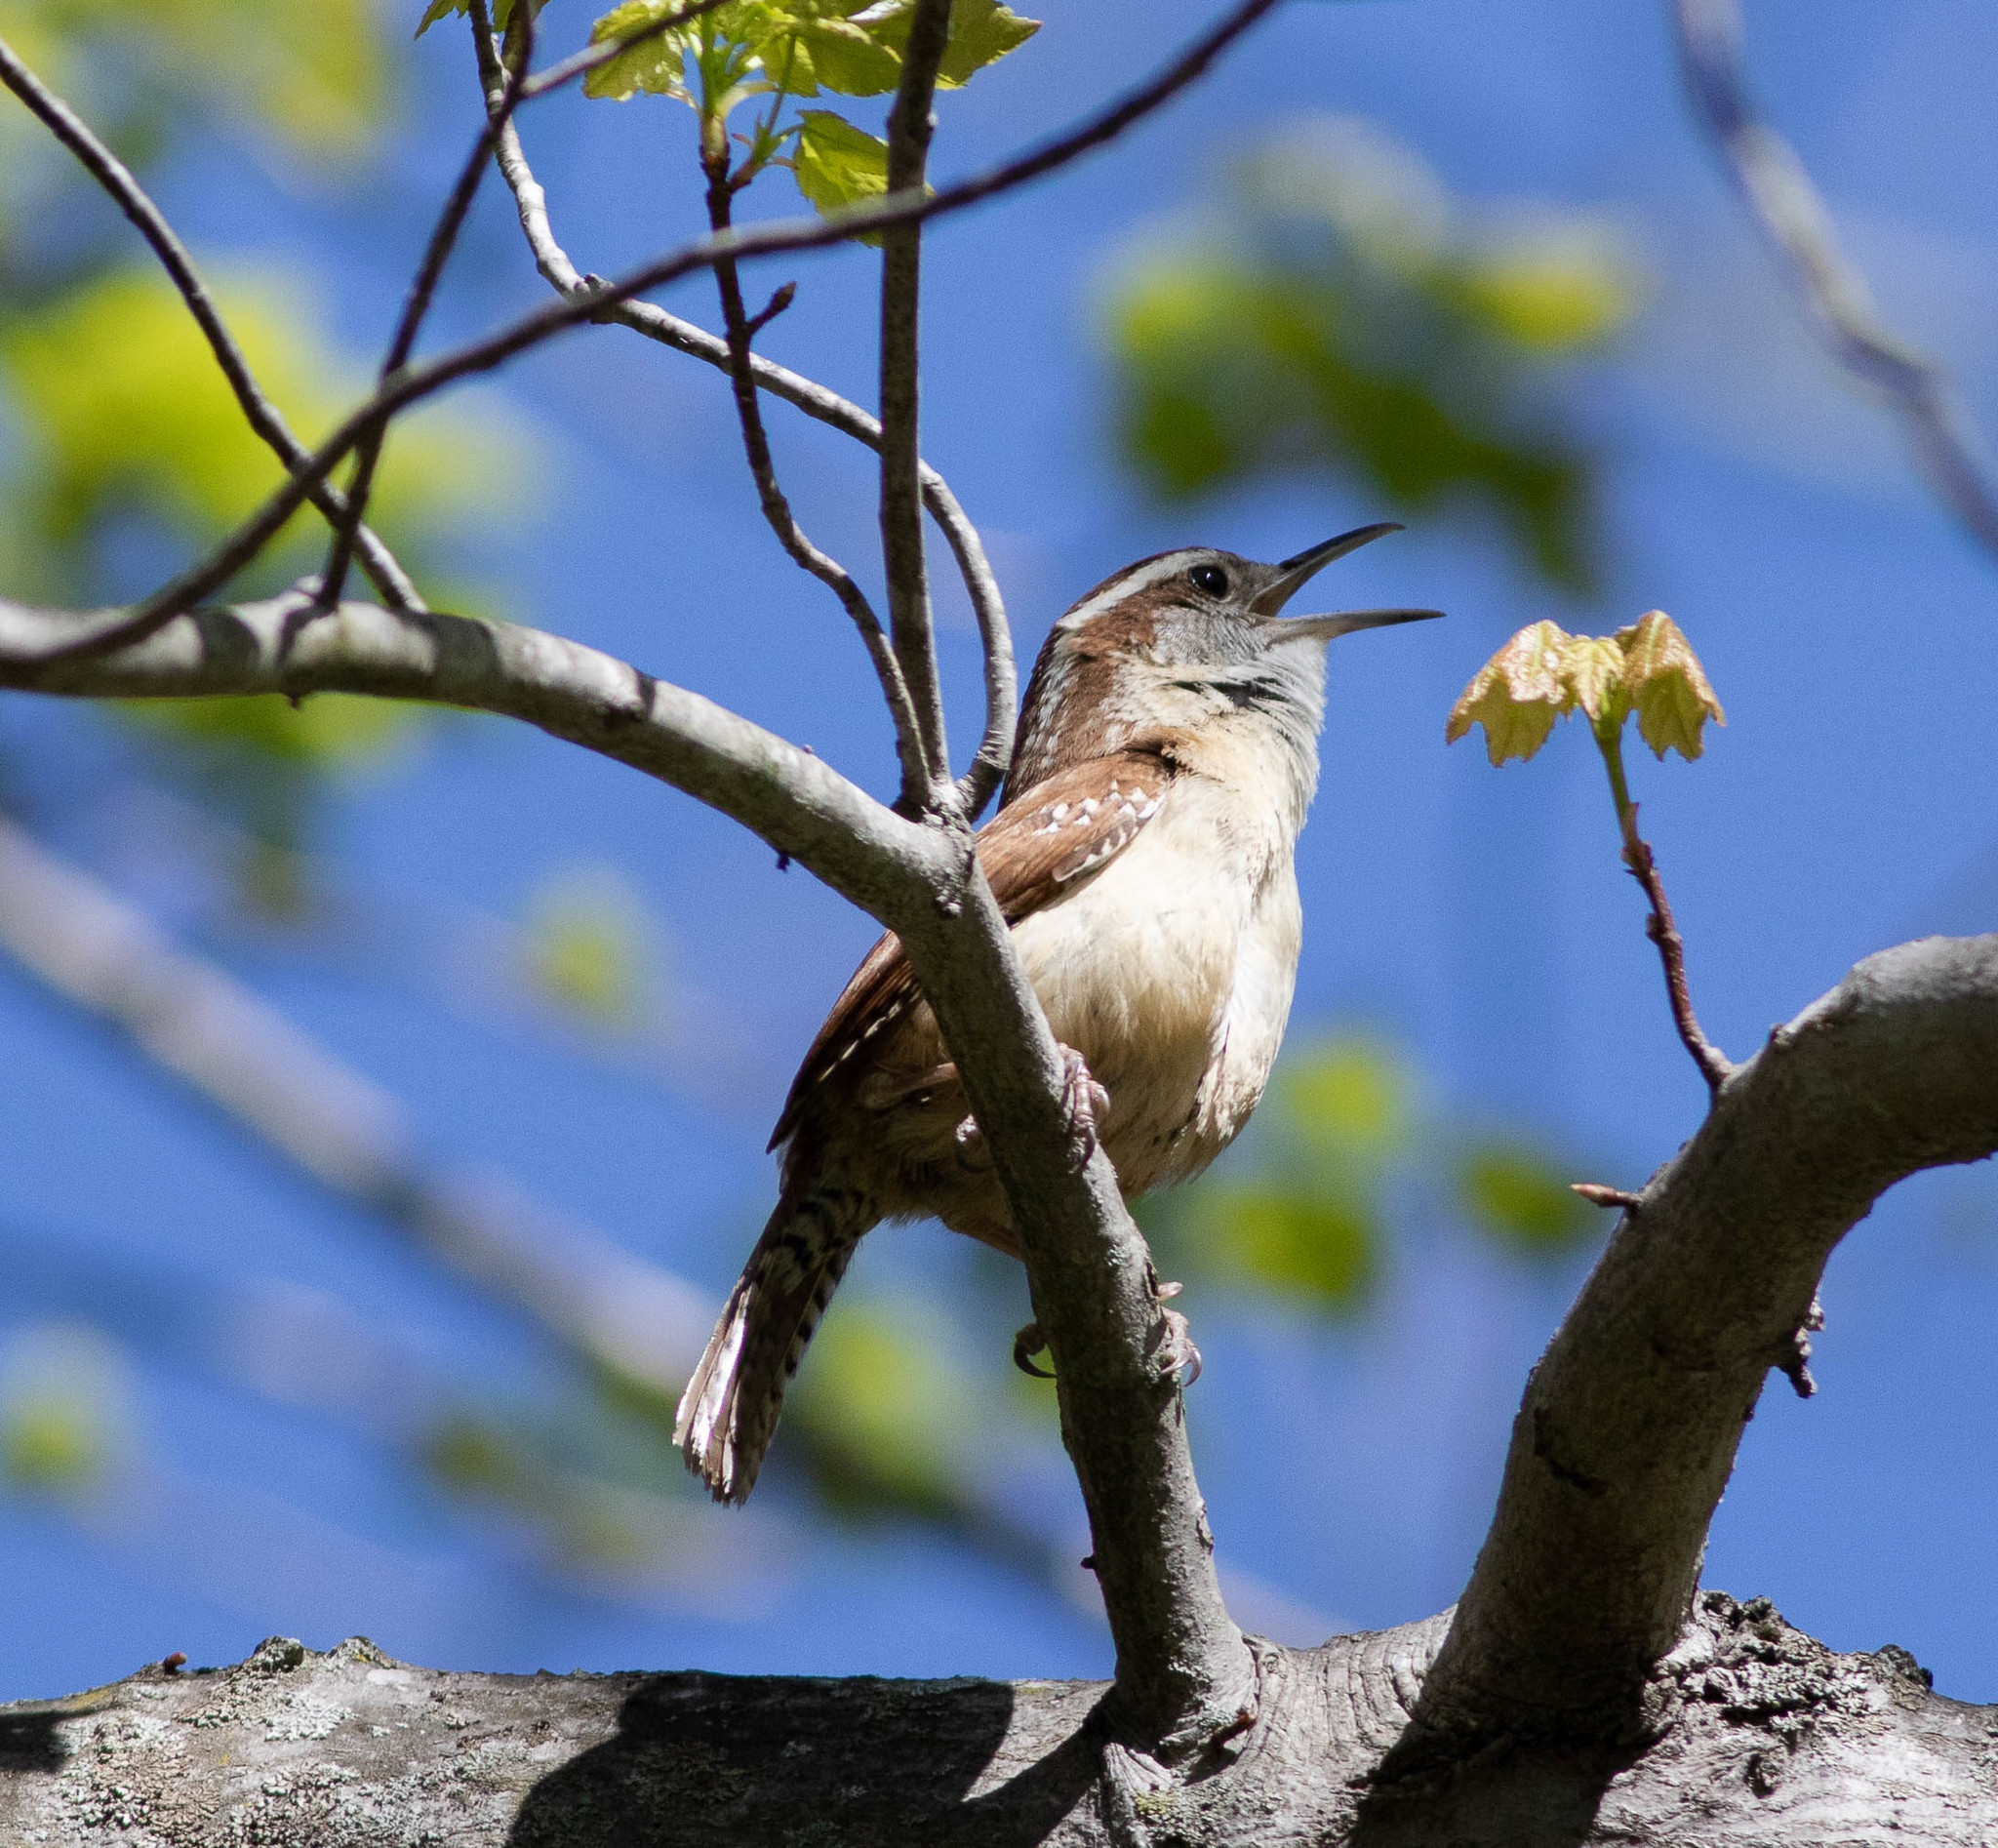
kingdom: Animalia
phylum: Chordata
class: Aves
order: Passeriformes
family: Troglodytidae
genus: Thryothorus
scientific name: Thryothorus ludovicianus
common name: Carolina wren
